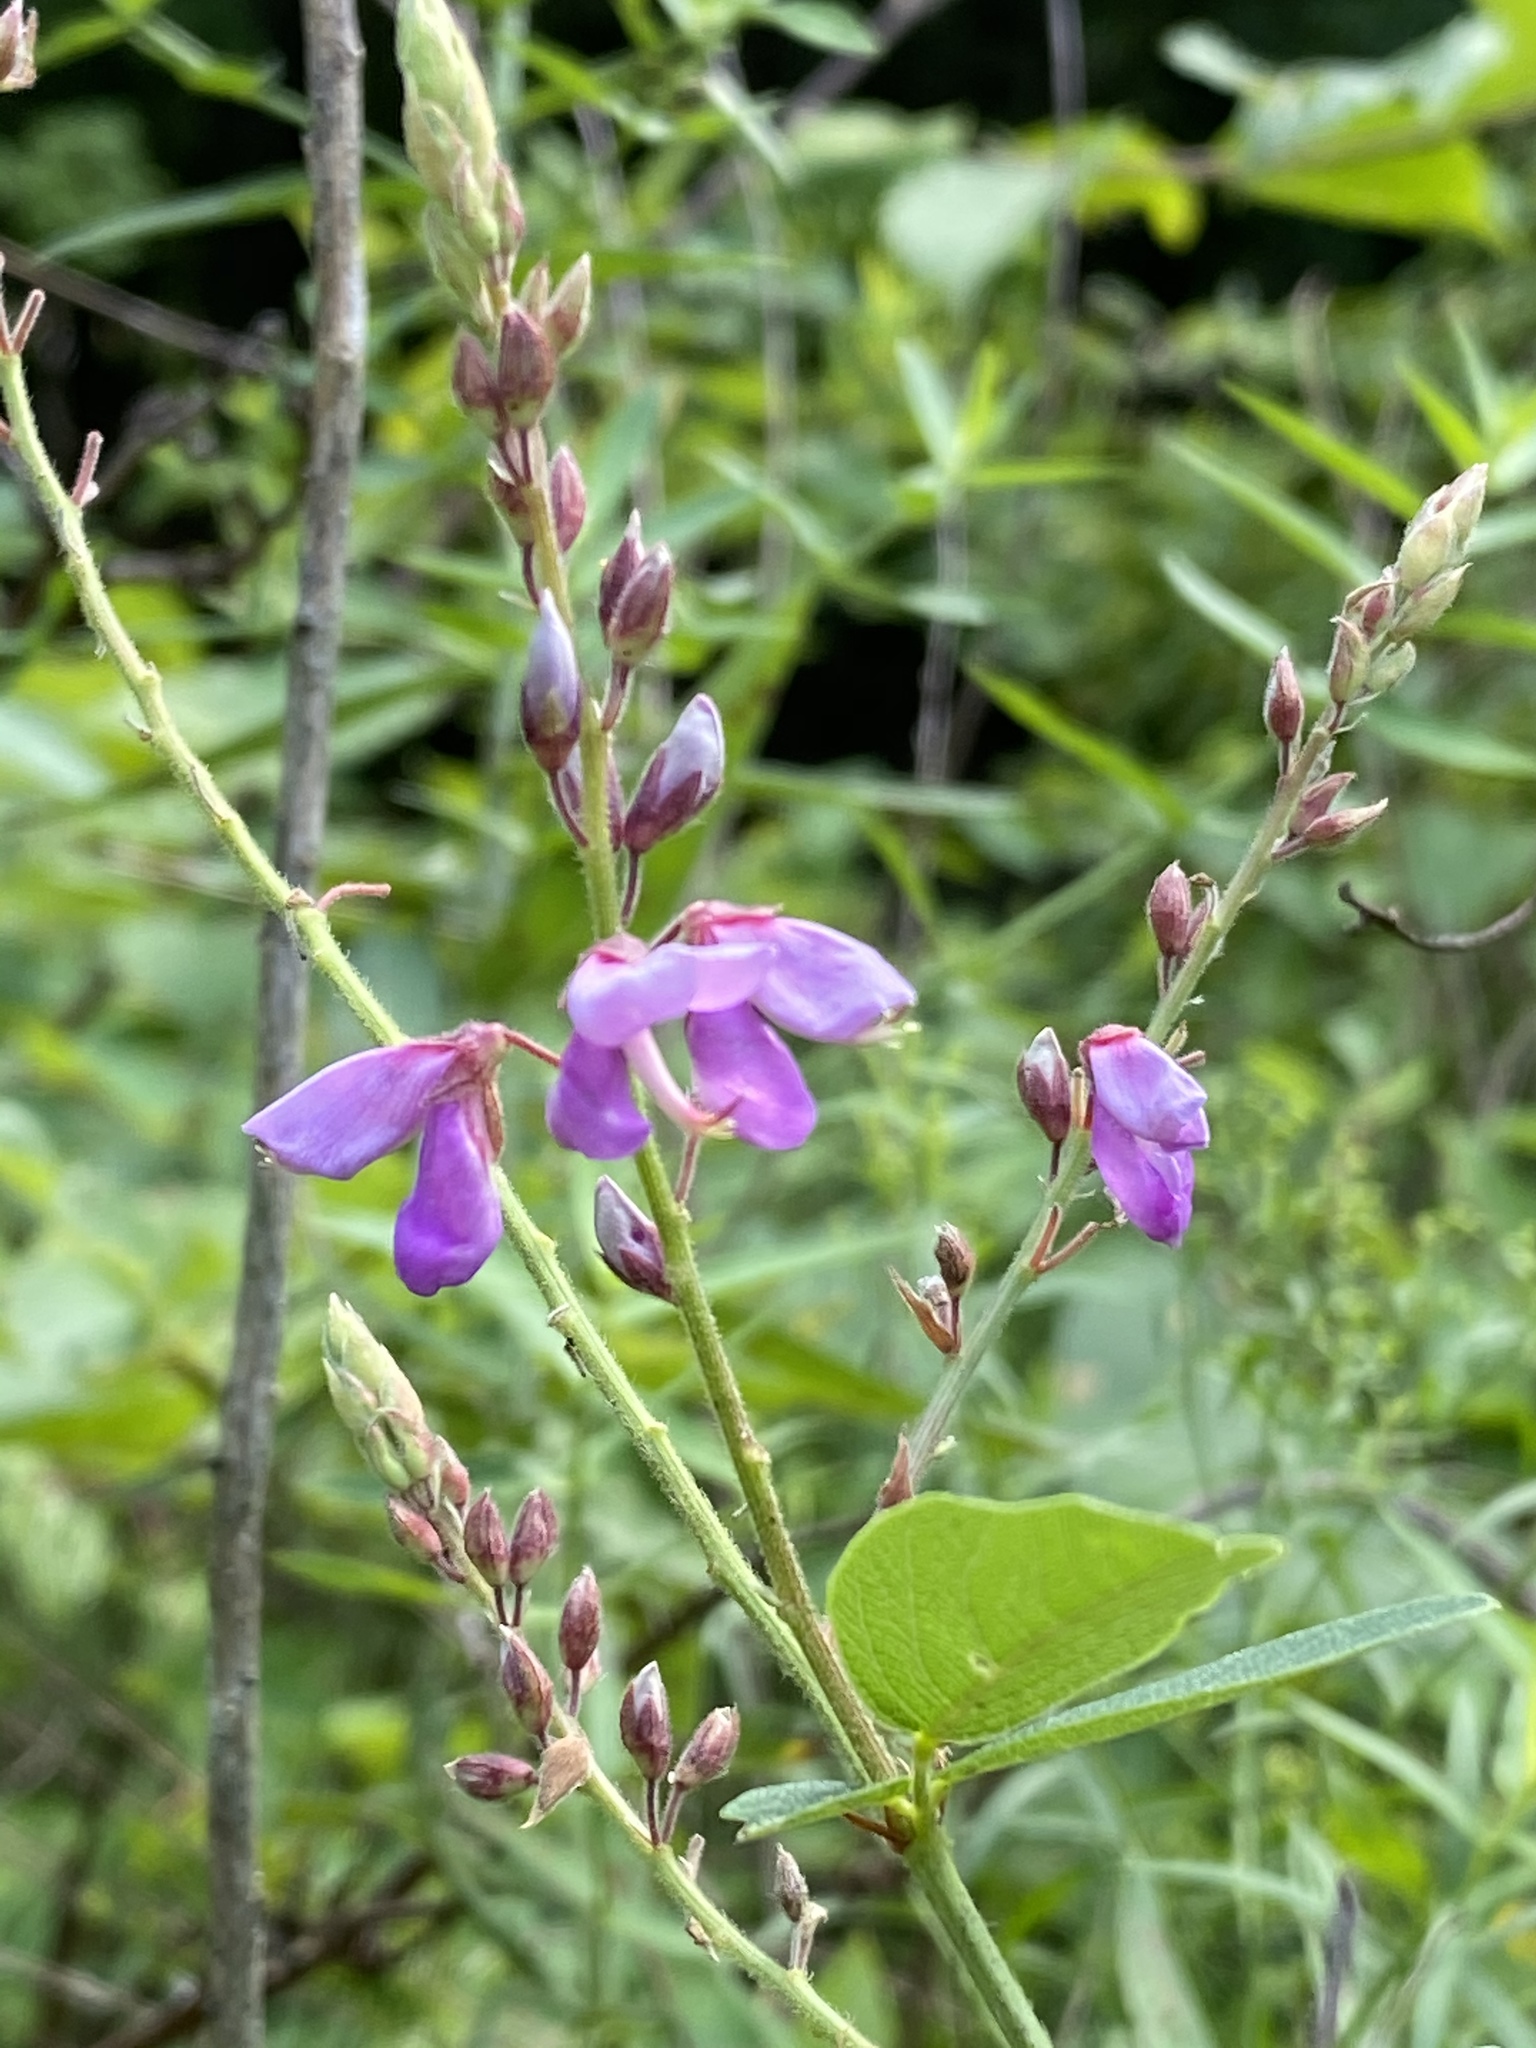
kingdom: Plantae
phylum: Tracheophyta
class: Magnoliopsida
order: Fabales
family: Fabaceae
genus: Desmodium
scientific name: Desmodium canadense
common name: Canada tick-trefoil
